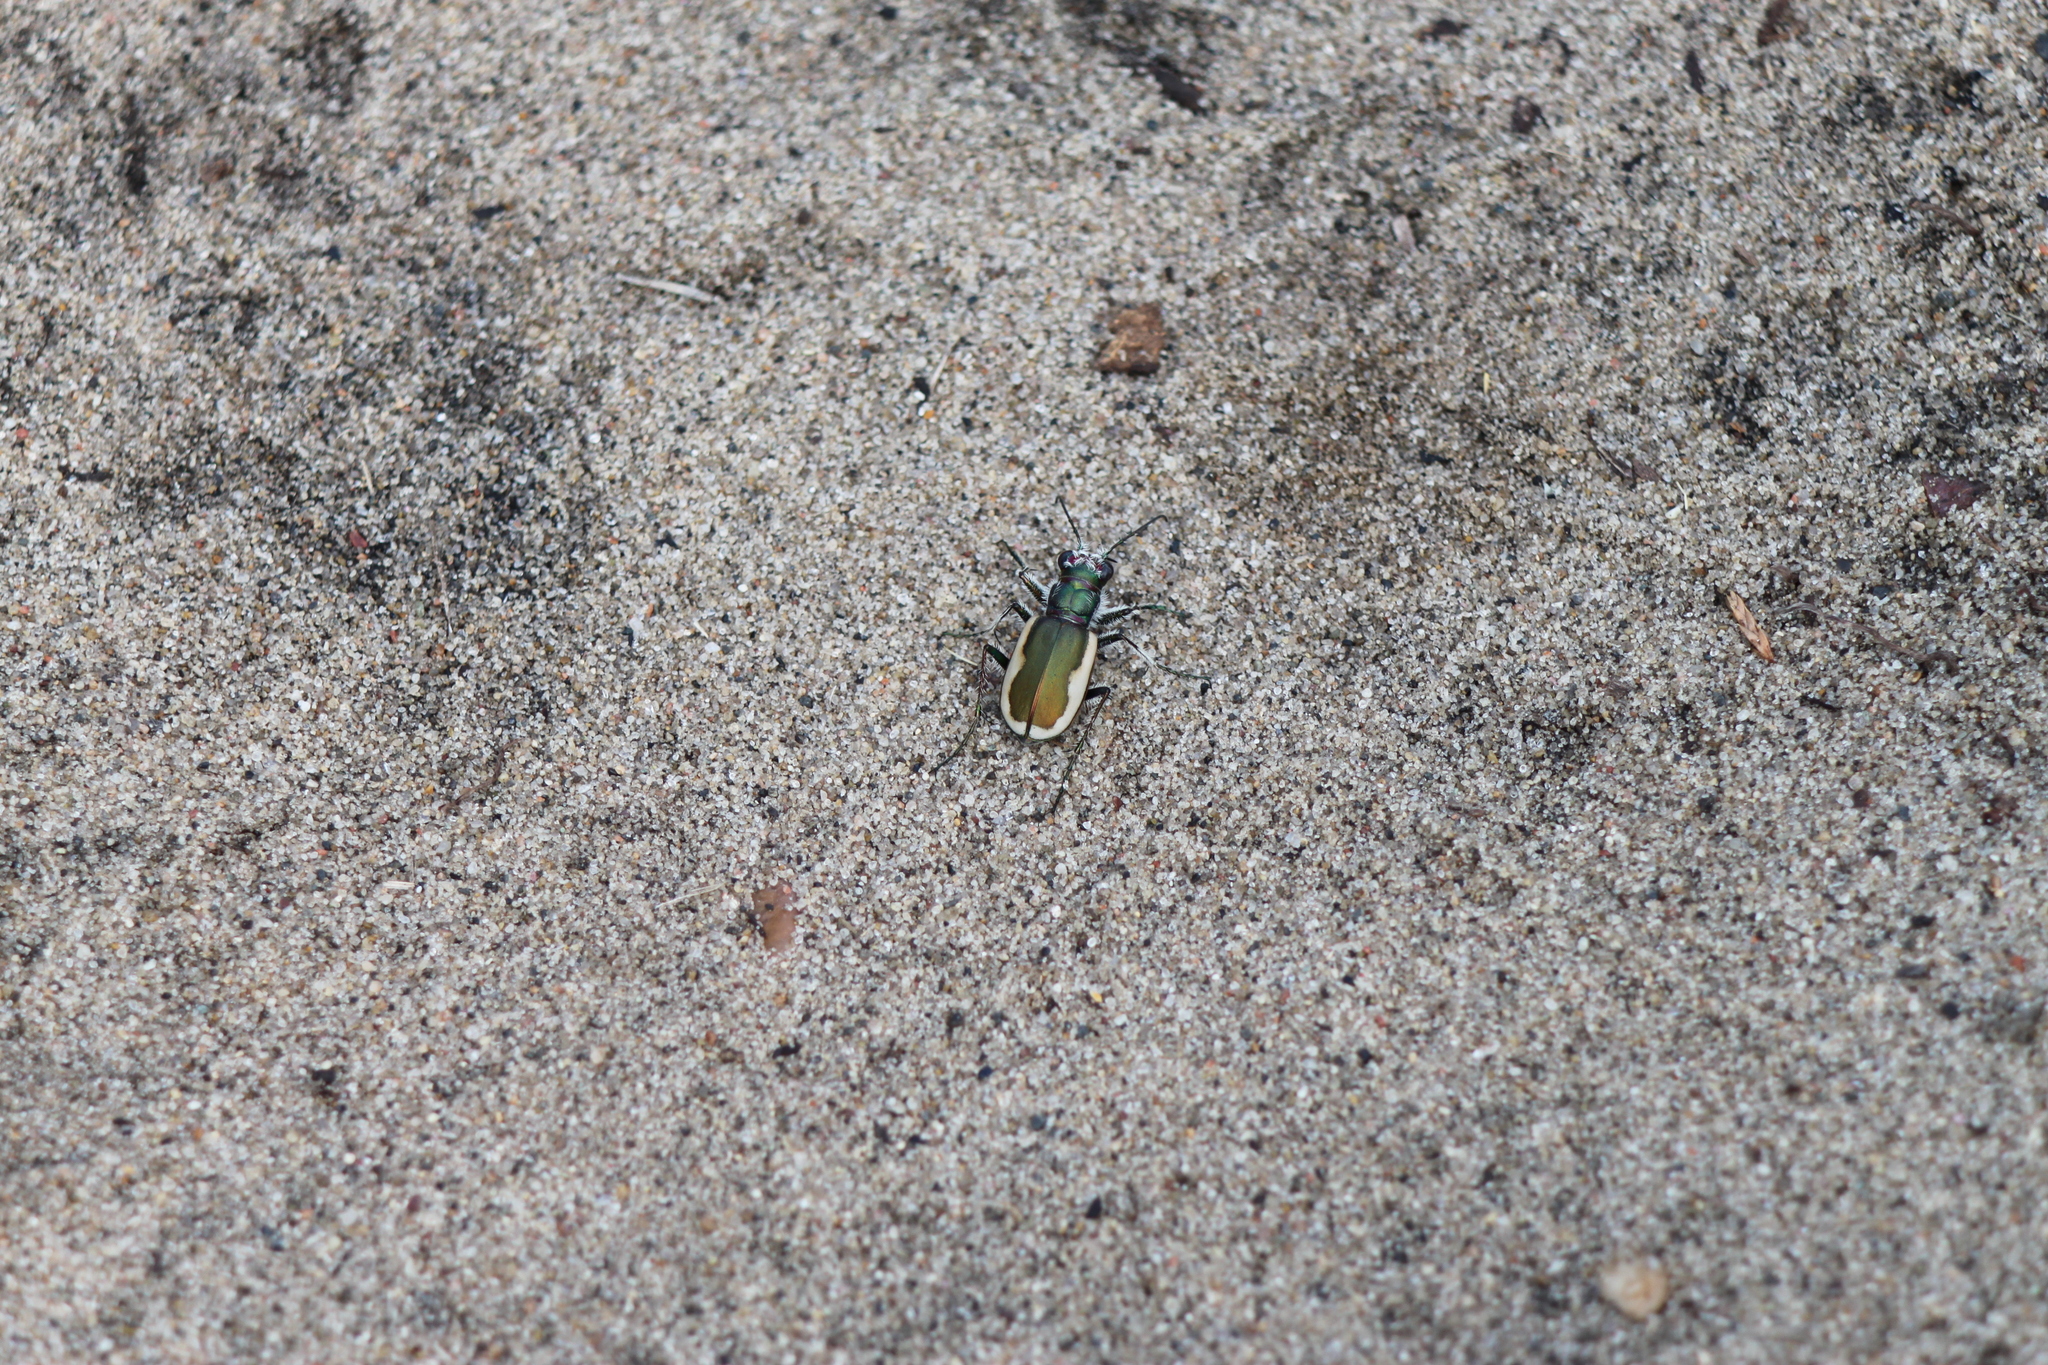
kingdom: Animalia
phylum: Arthropoda
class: Insecta
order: Coleoptera
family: Carabidae
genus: Cicindela
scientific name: Cicindela scutellaris
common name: Festive tiger beetle
